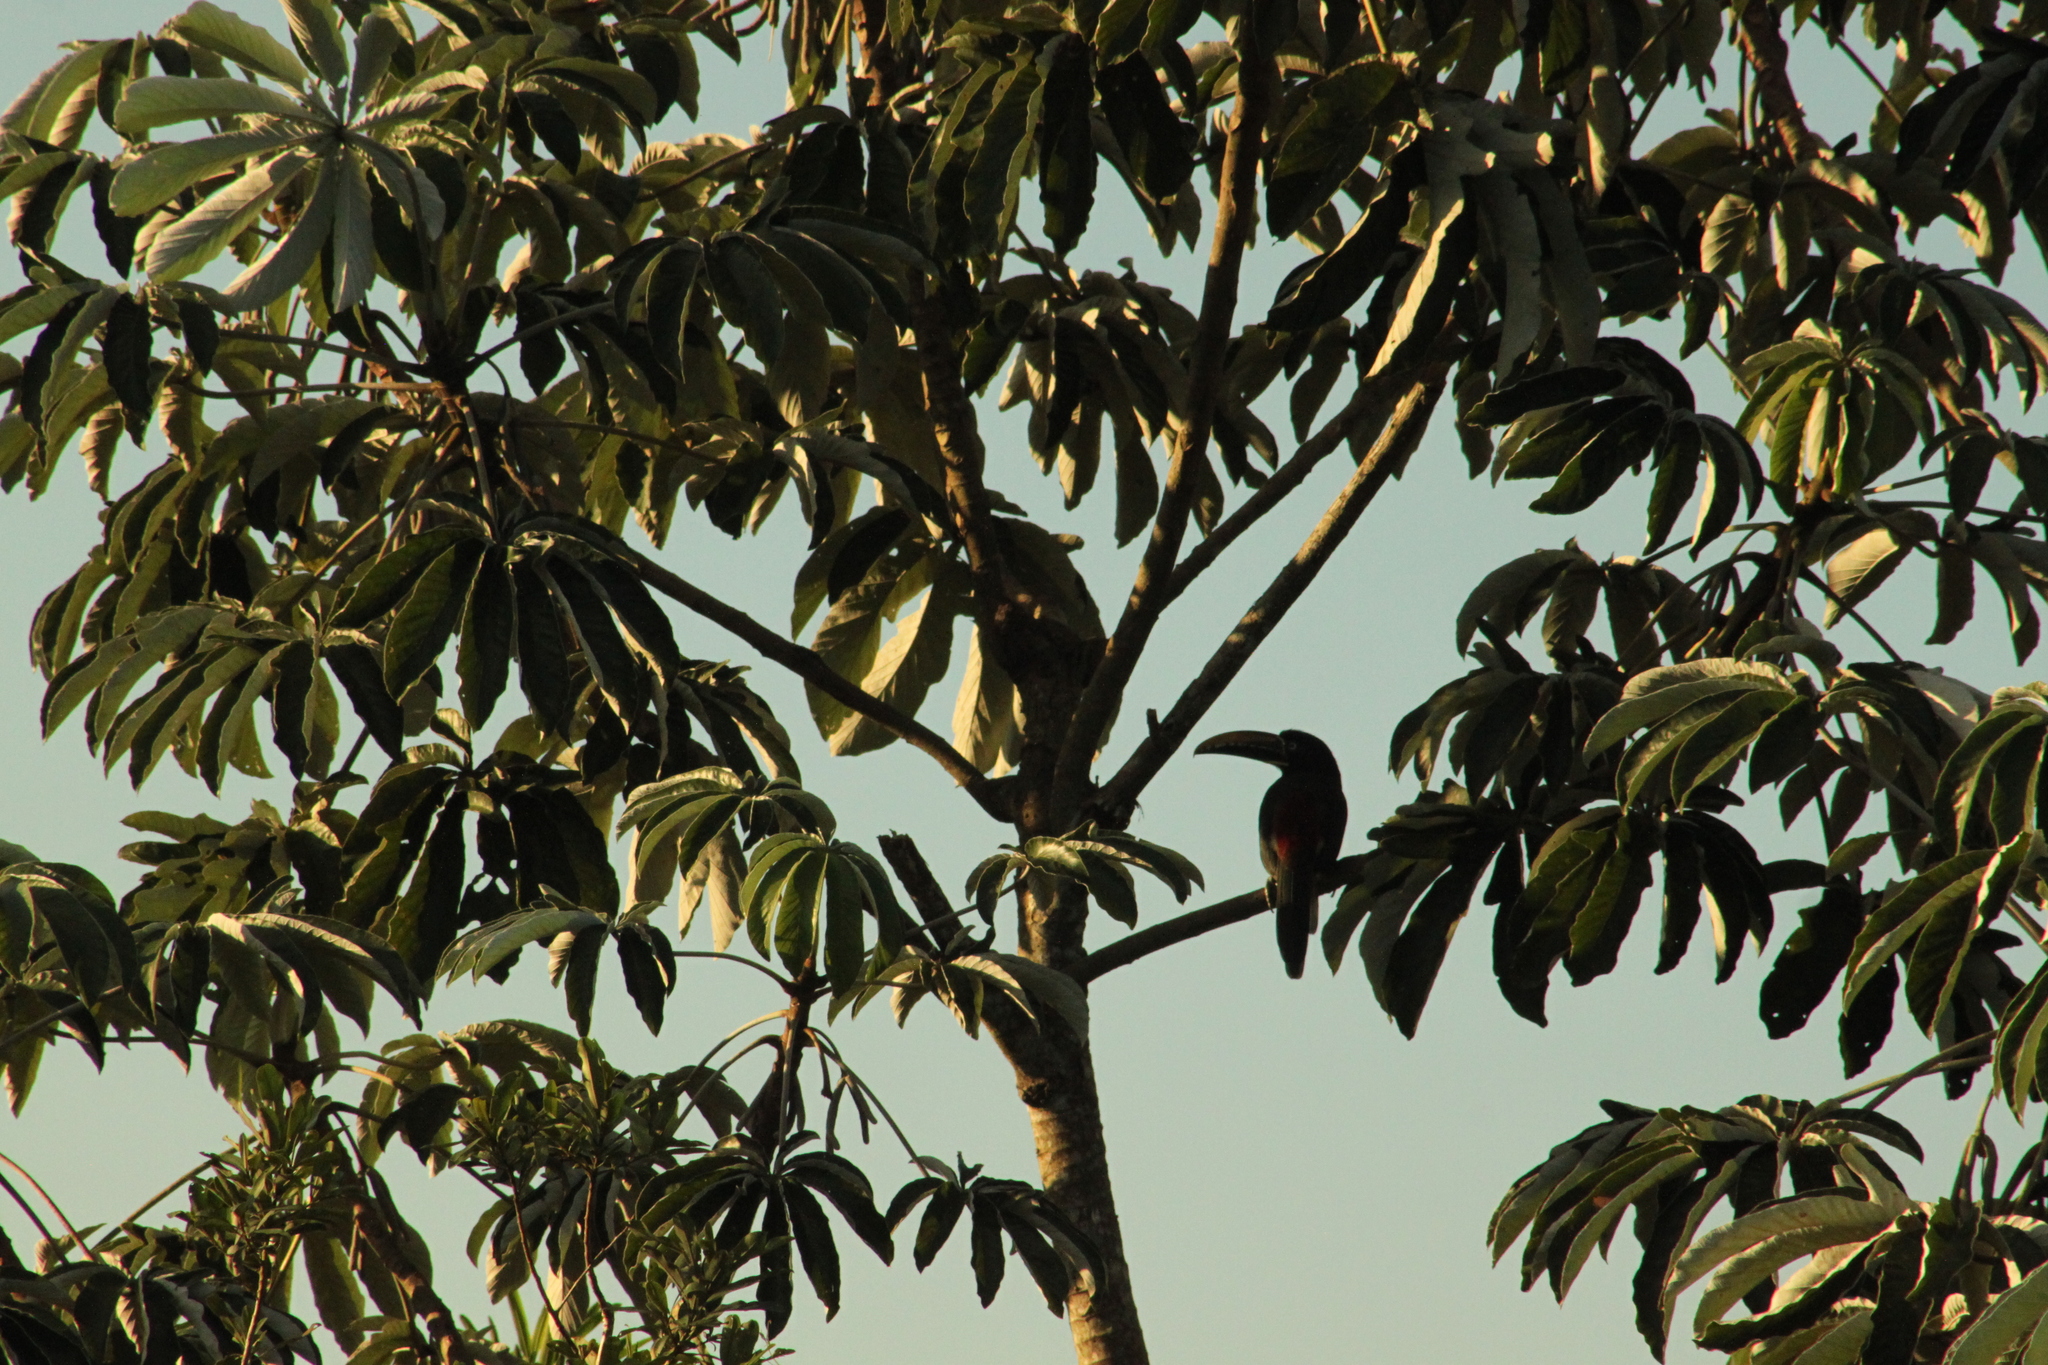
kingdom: Animalia
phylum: Chordata
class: Aves
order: Piciformes
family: Ramphastidae
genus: Pteroglossus
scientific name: Pteroglossus castanotis
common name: Chestnut-eared aracari
